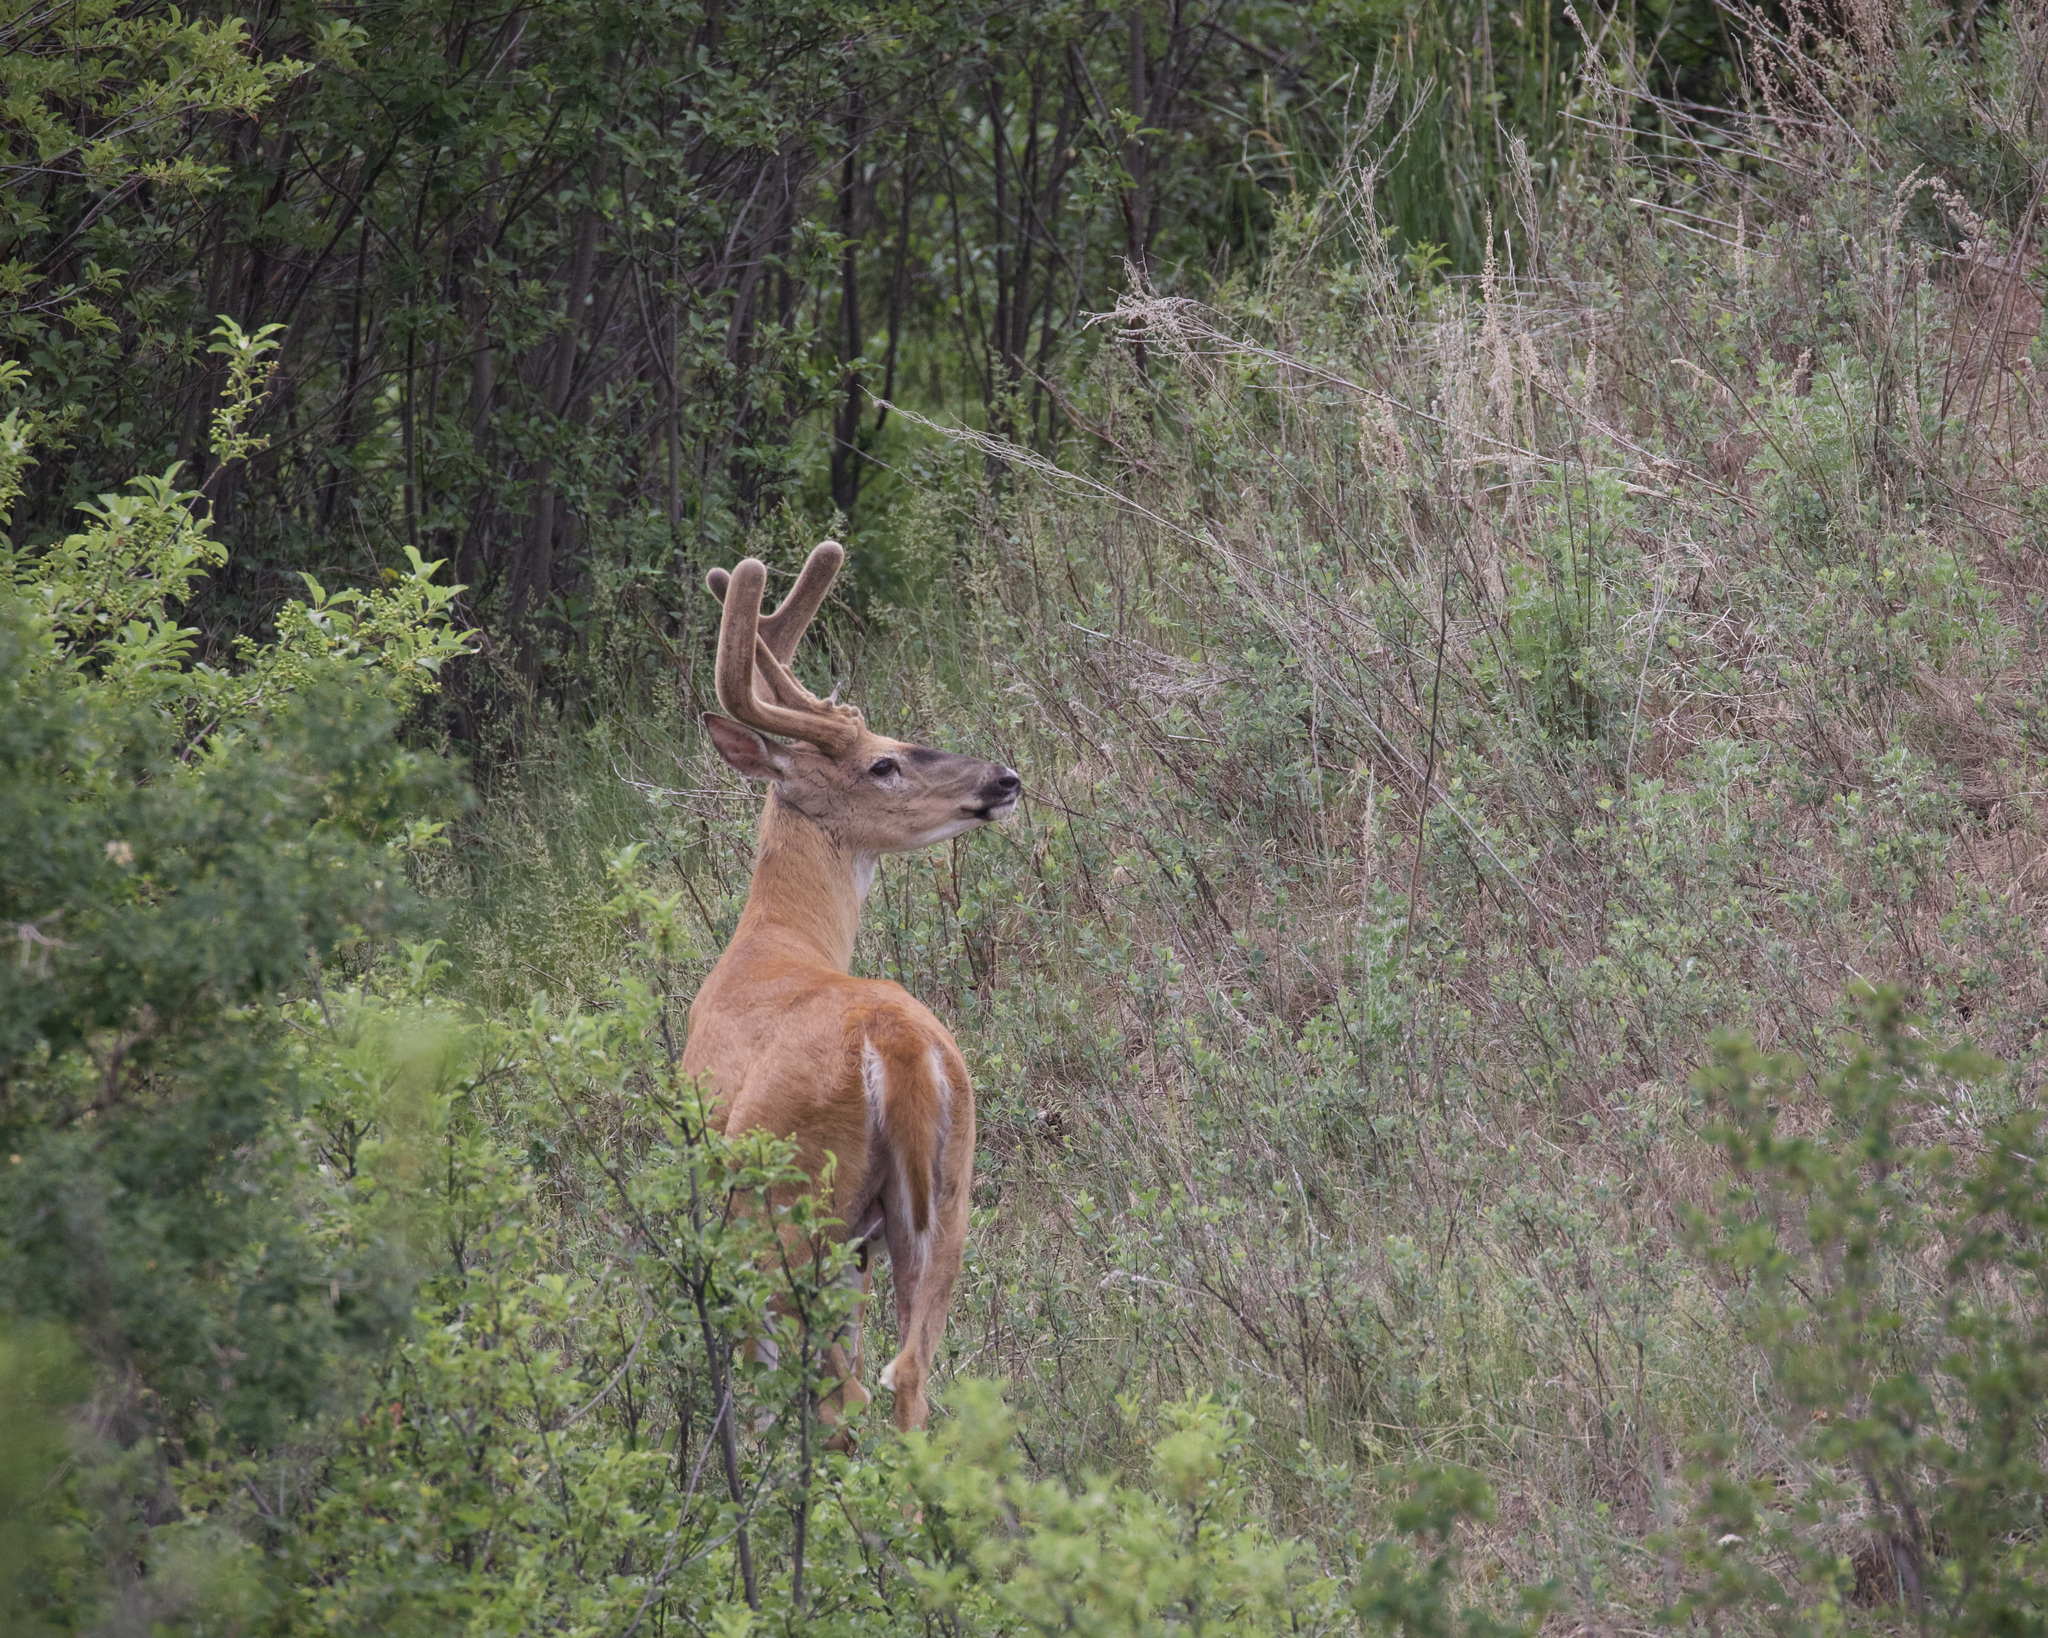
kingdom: Animalia
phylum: Chordata
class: Mammalia
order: Artiodactyla
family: Cervidae
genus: Odocoileus
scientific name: Odocoileus virginianus
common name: White-tailed deer
